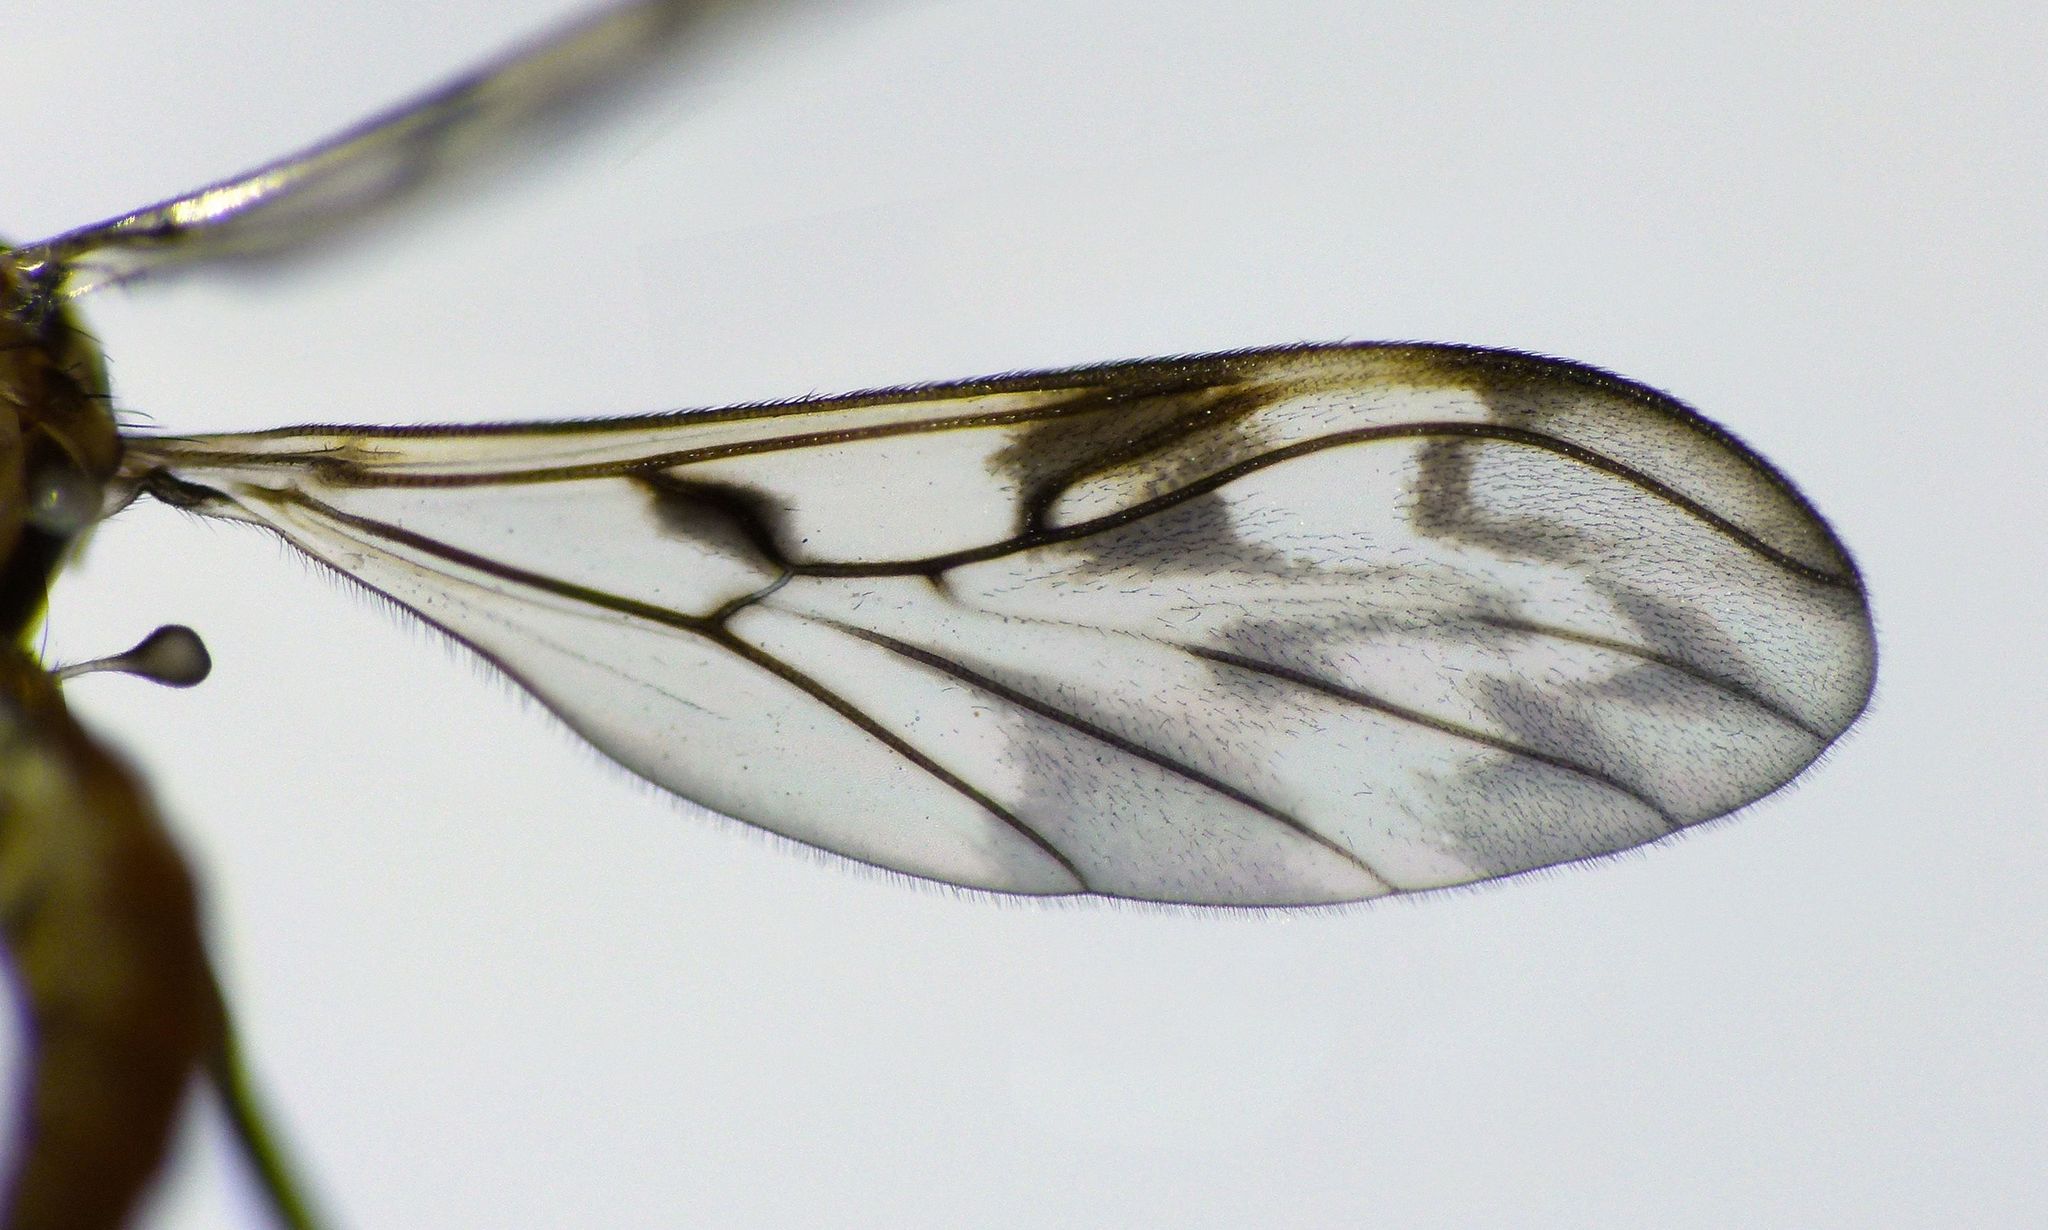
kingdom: Animalia
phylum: Arthropoda
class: Insecta
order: Diptera
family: Ditomyiidae
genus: Nervijuncta
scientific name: Nervijuncta wakefieldi
